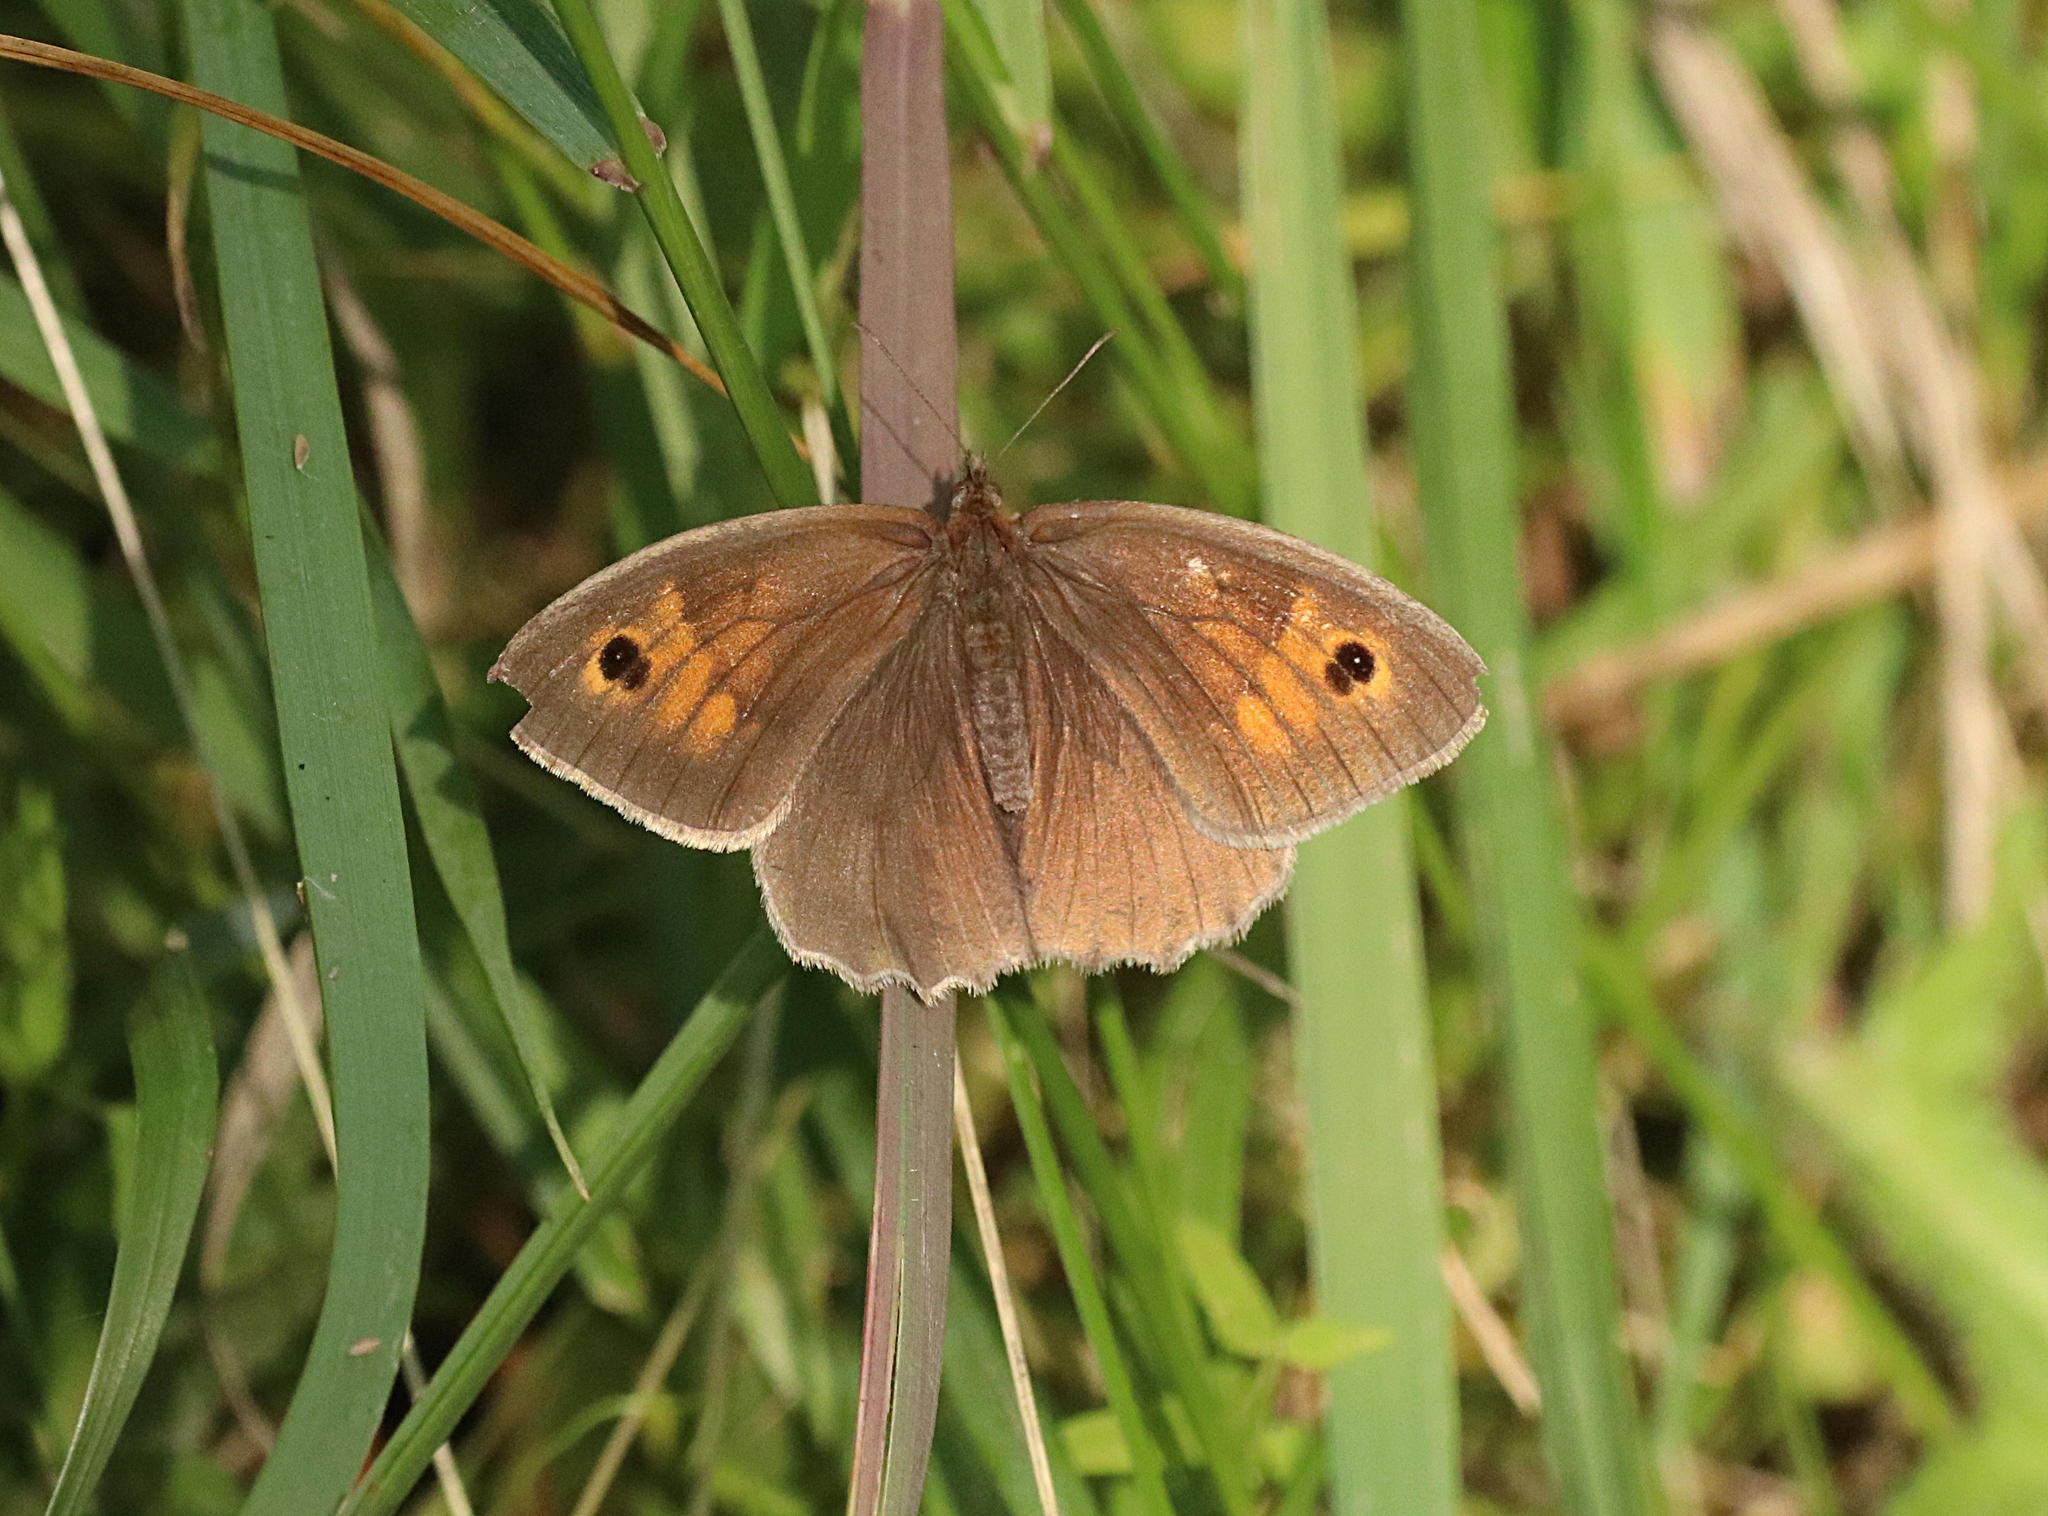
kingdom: Animalia
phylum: Arthropoda
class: Insecta
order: Lepidoptera
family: Nymphalidae
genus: Maniola
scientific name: Maniola jurtina
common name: Meadow brown
